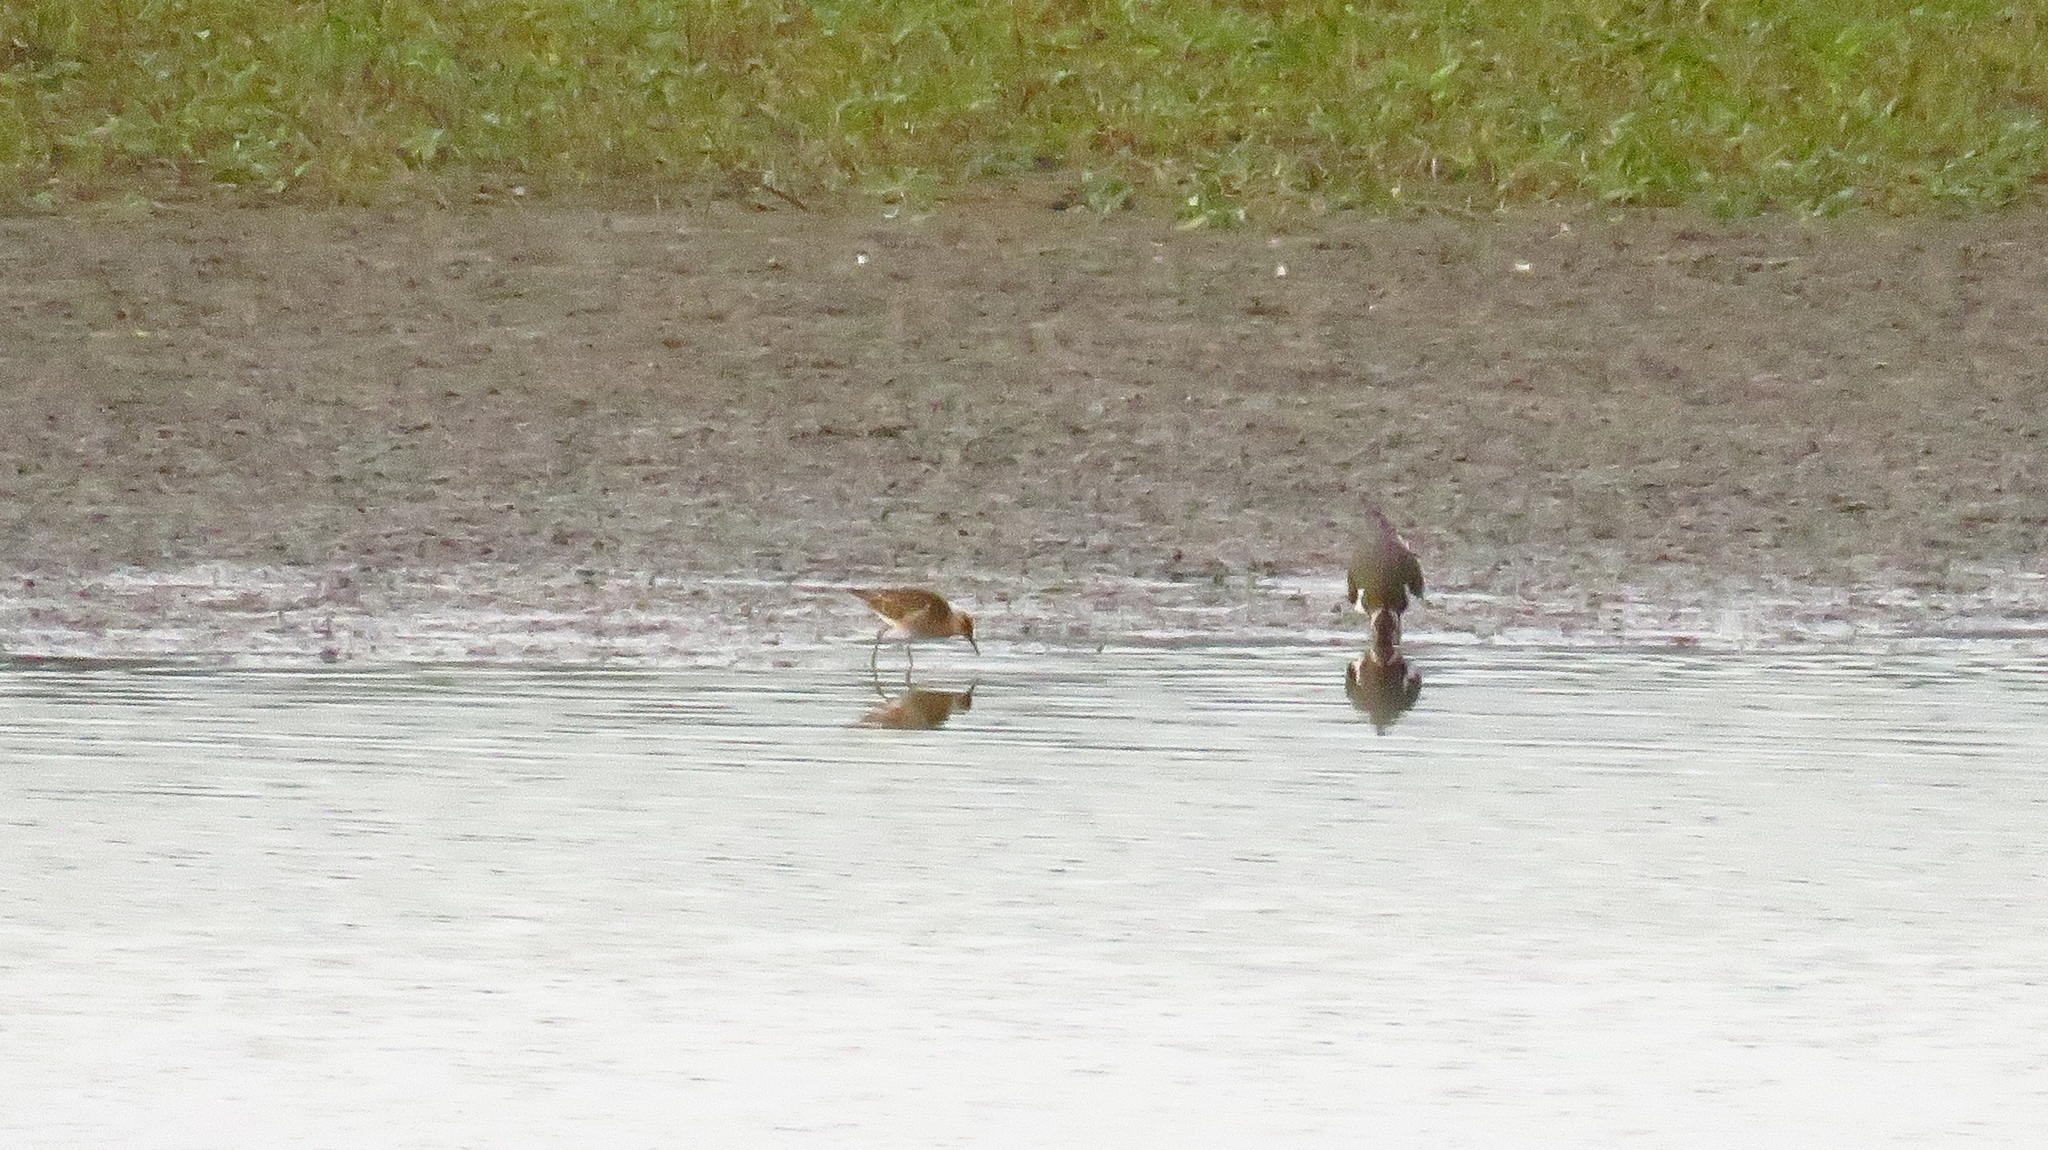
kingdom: Animalia
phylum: Chordata
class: Aves
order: Charadriiformes
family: Scolopacidae
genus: Calidris
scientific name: Calidris pugnax
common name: Ruff
